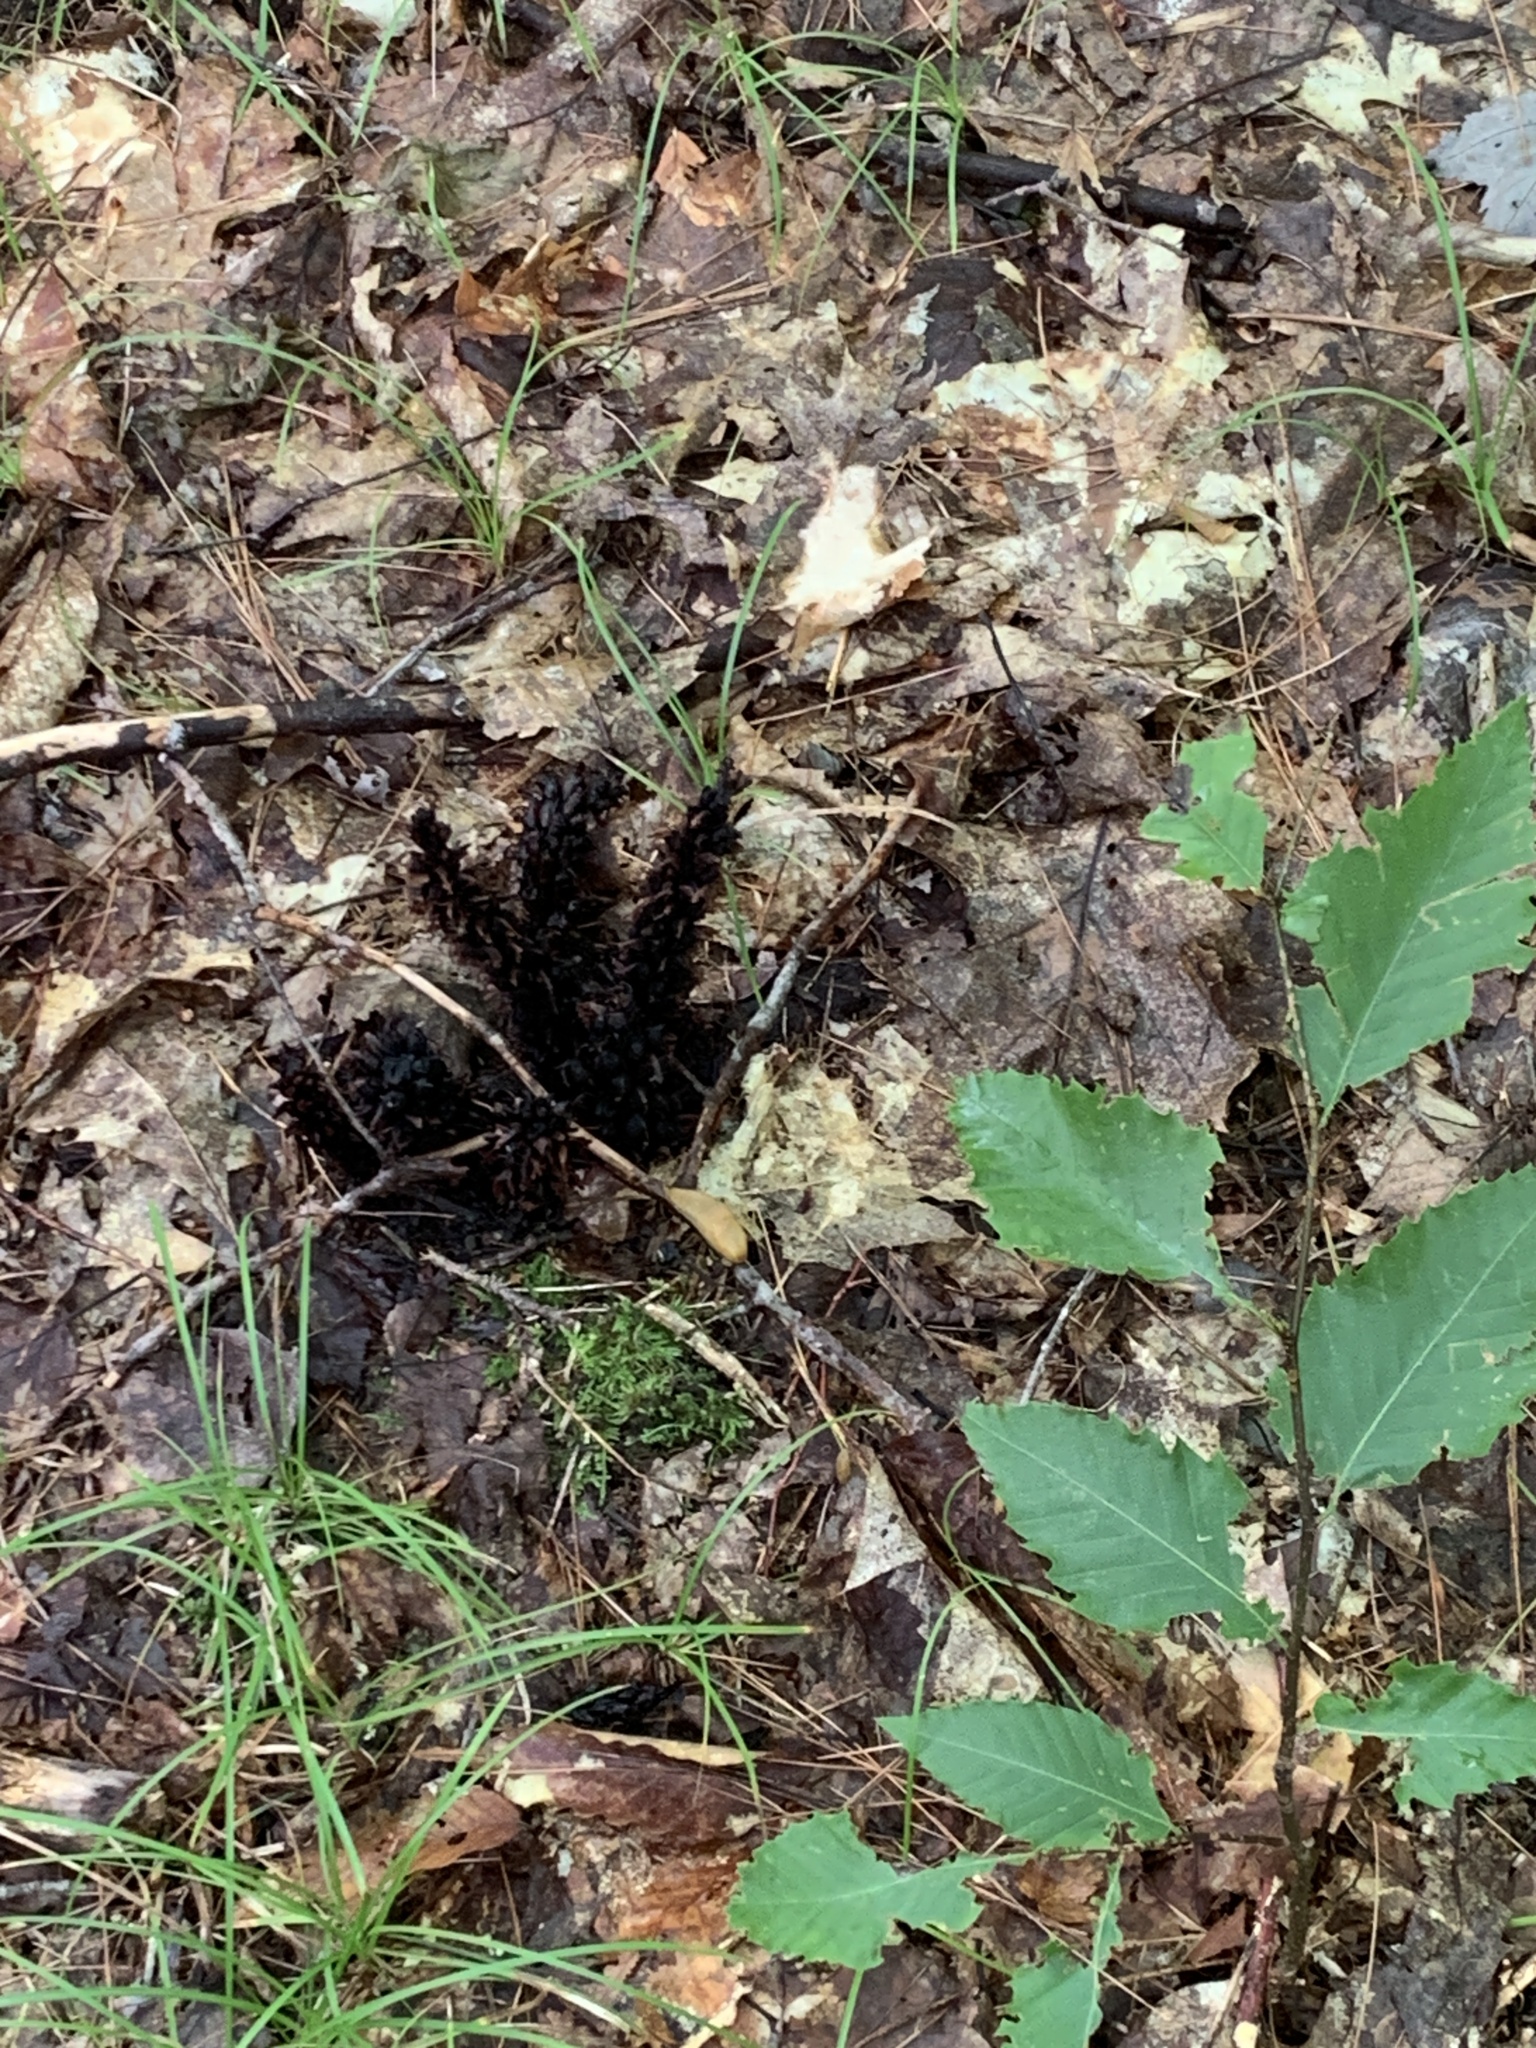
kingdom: Plantae
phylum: Tracheophyta
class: Magnoliopsida
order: Lamiales
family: Orobanchaceae
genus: Conopholis
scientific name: Conopholis americana
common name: American cancer-root
